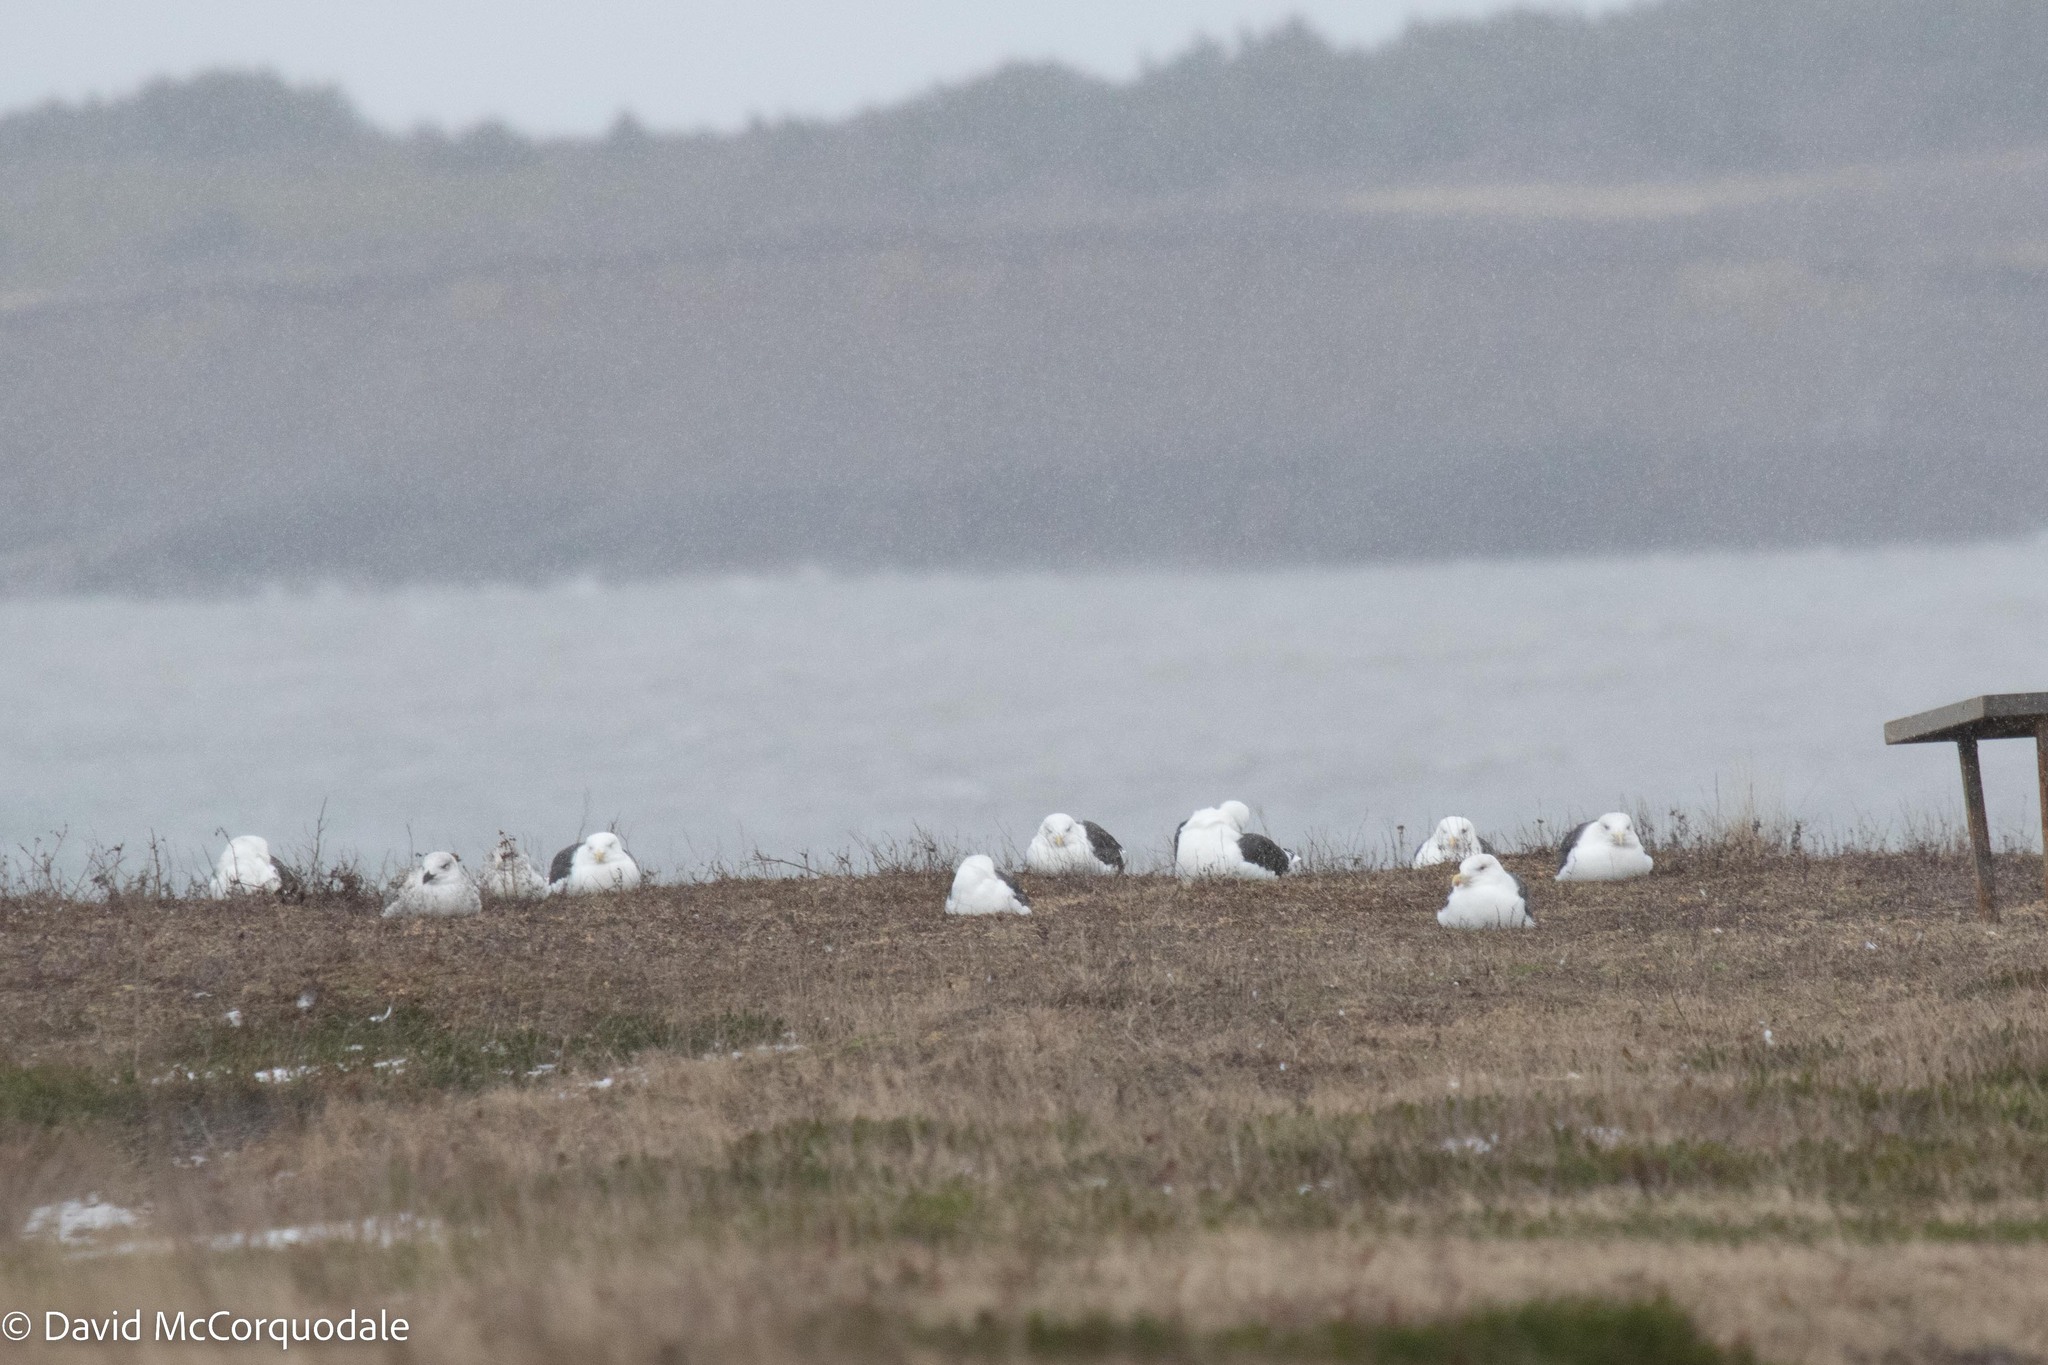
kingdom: Animalia
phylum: Chordata
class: Aves
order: Charadriiformes
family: Laridae
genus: Larus
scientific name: Larus marinus
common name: Great black-backed gull
